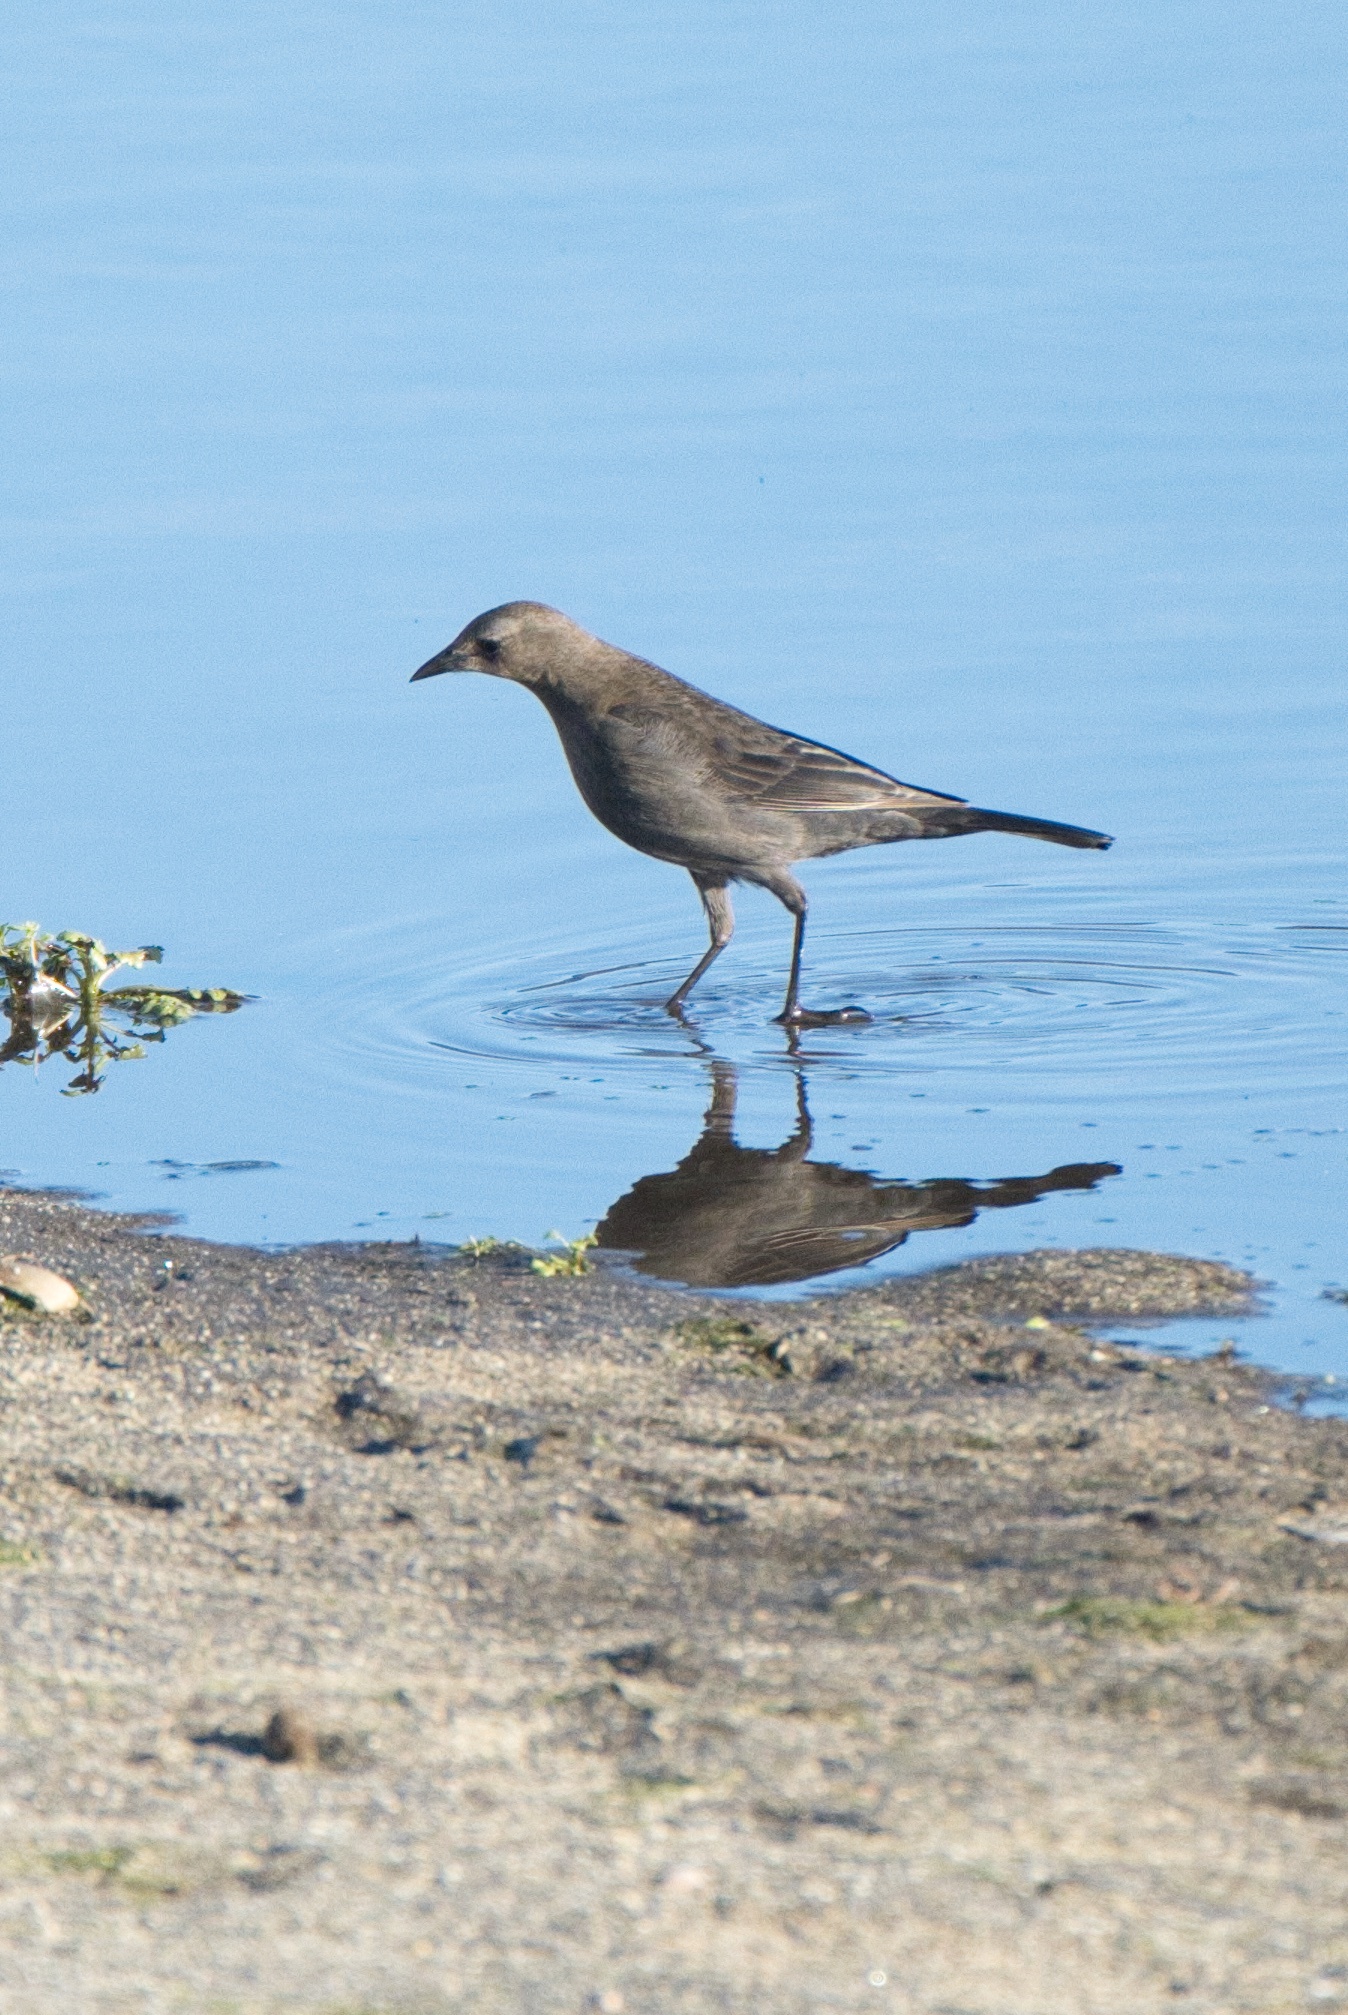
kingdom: Animalia
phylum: Chordata
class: Aves
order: Passeriformes
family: Icteridae
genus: Euphagus
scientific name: Euphagus cyanocephalus
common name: Brewer's blackbird
